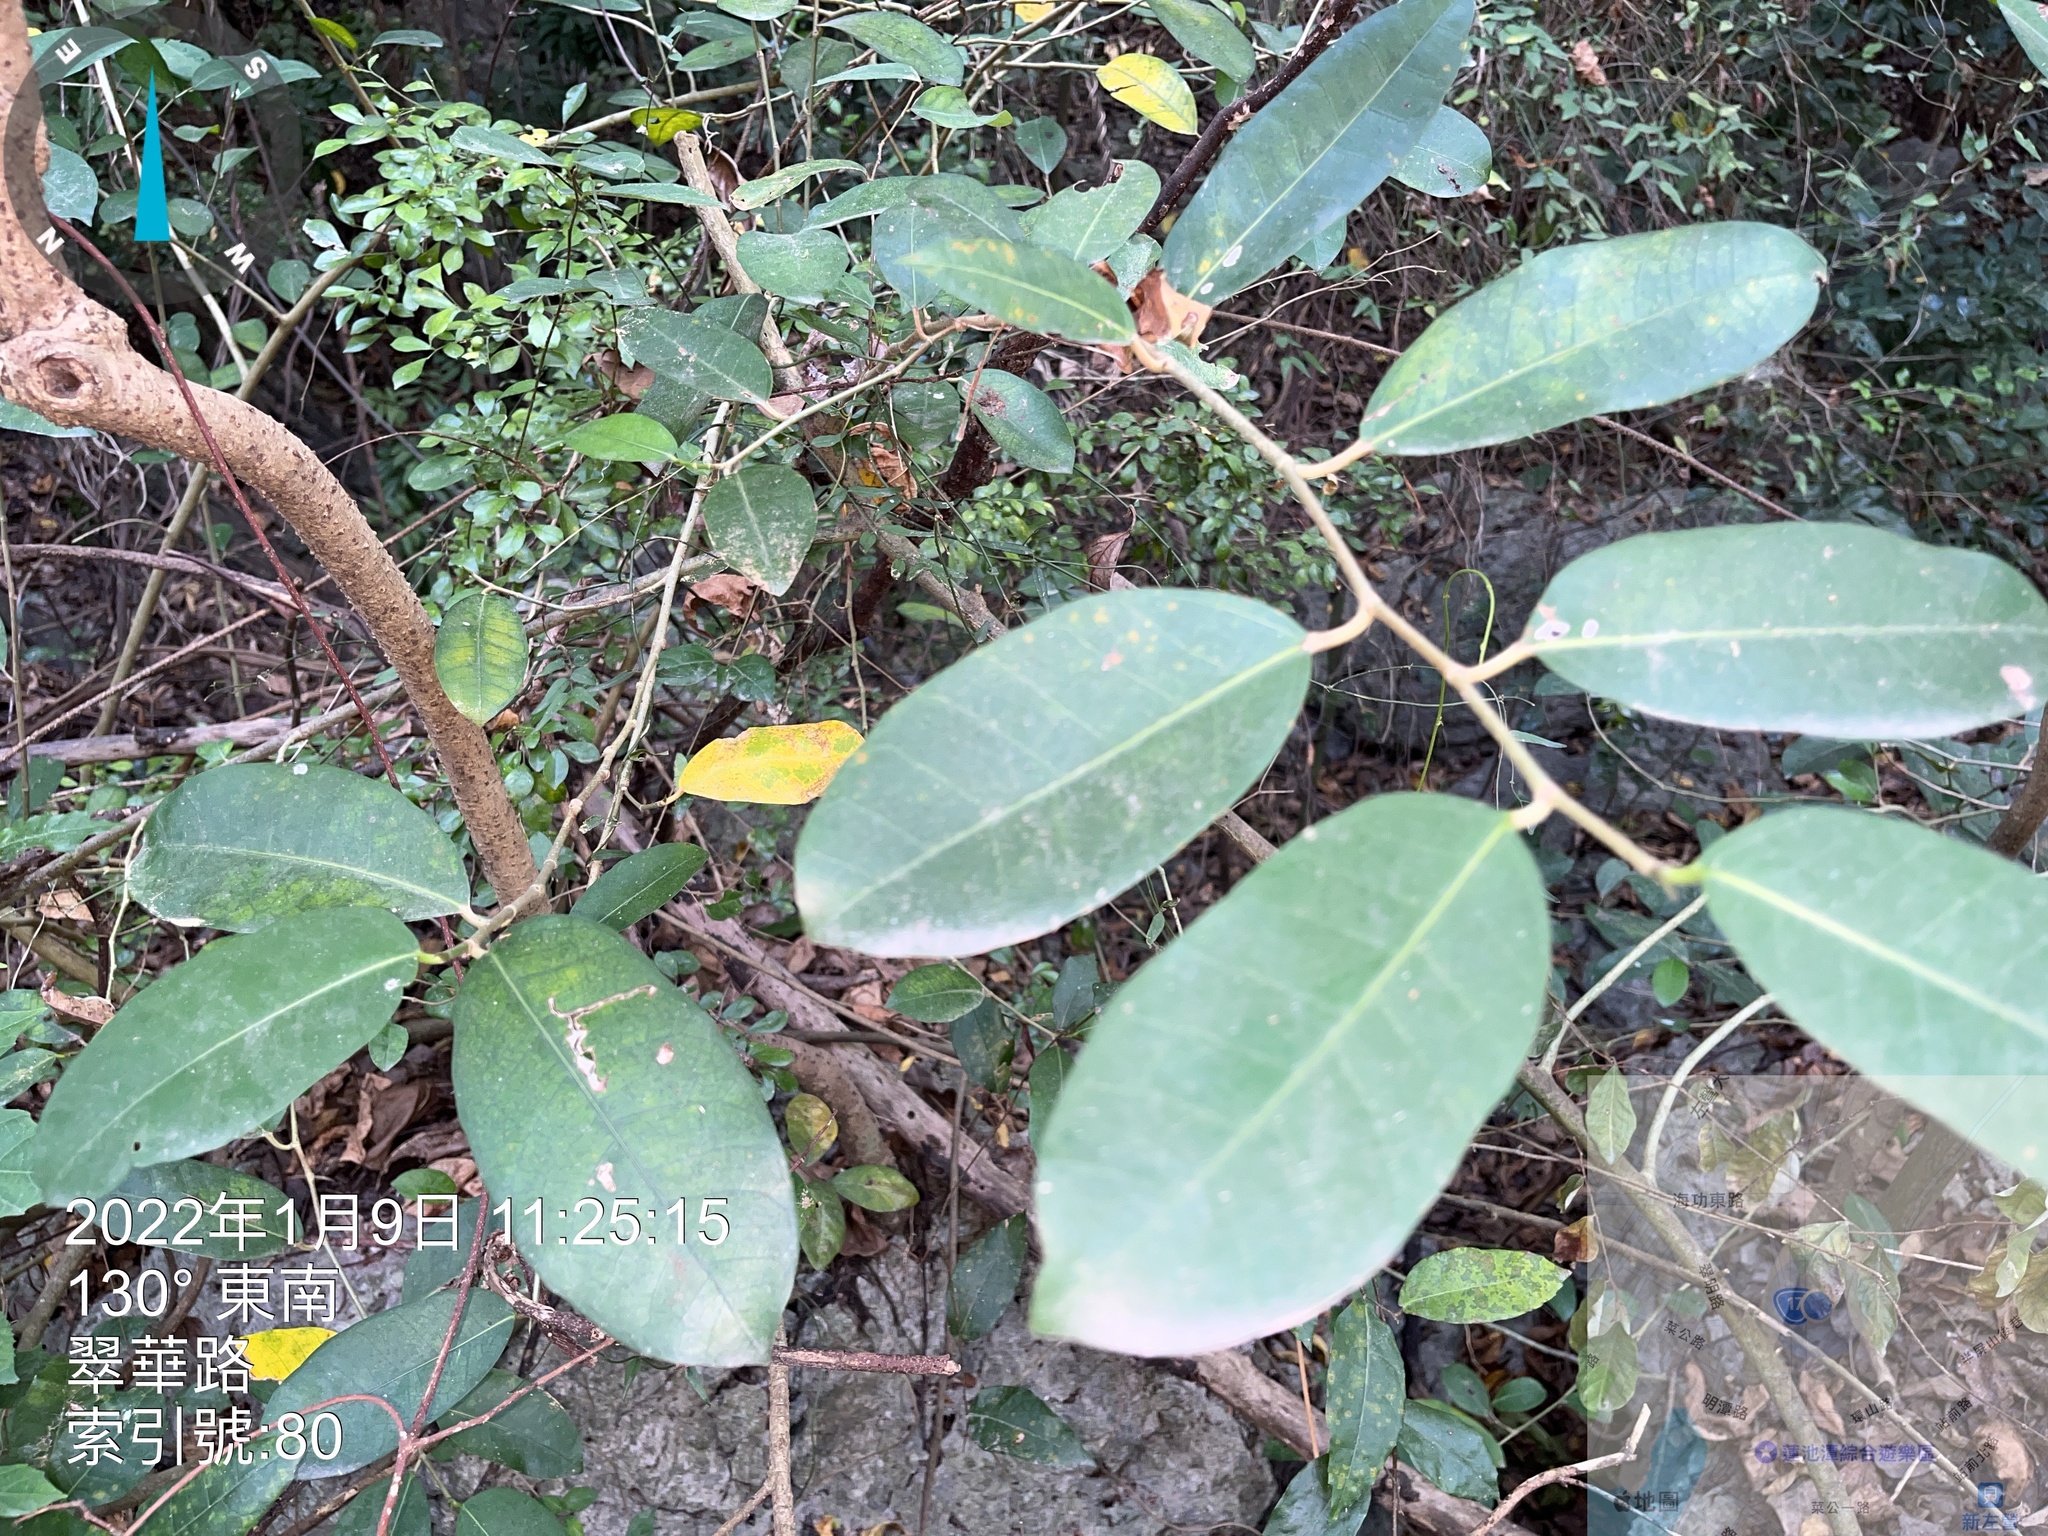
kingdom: Plantae
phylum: Tracheophyta
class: Magnoliopsida
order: Rosales
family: Moraceae
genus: Ficus
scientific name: Ficus tinctoria
